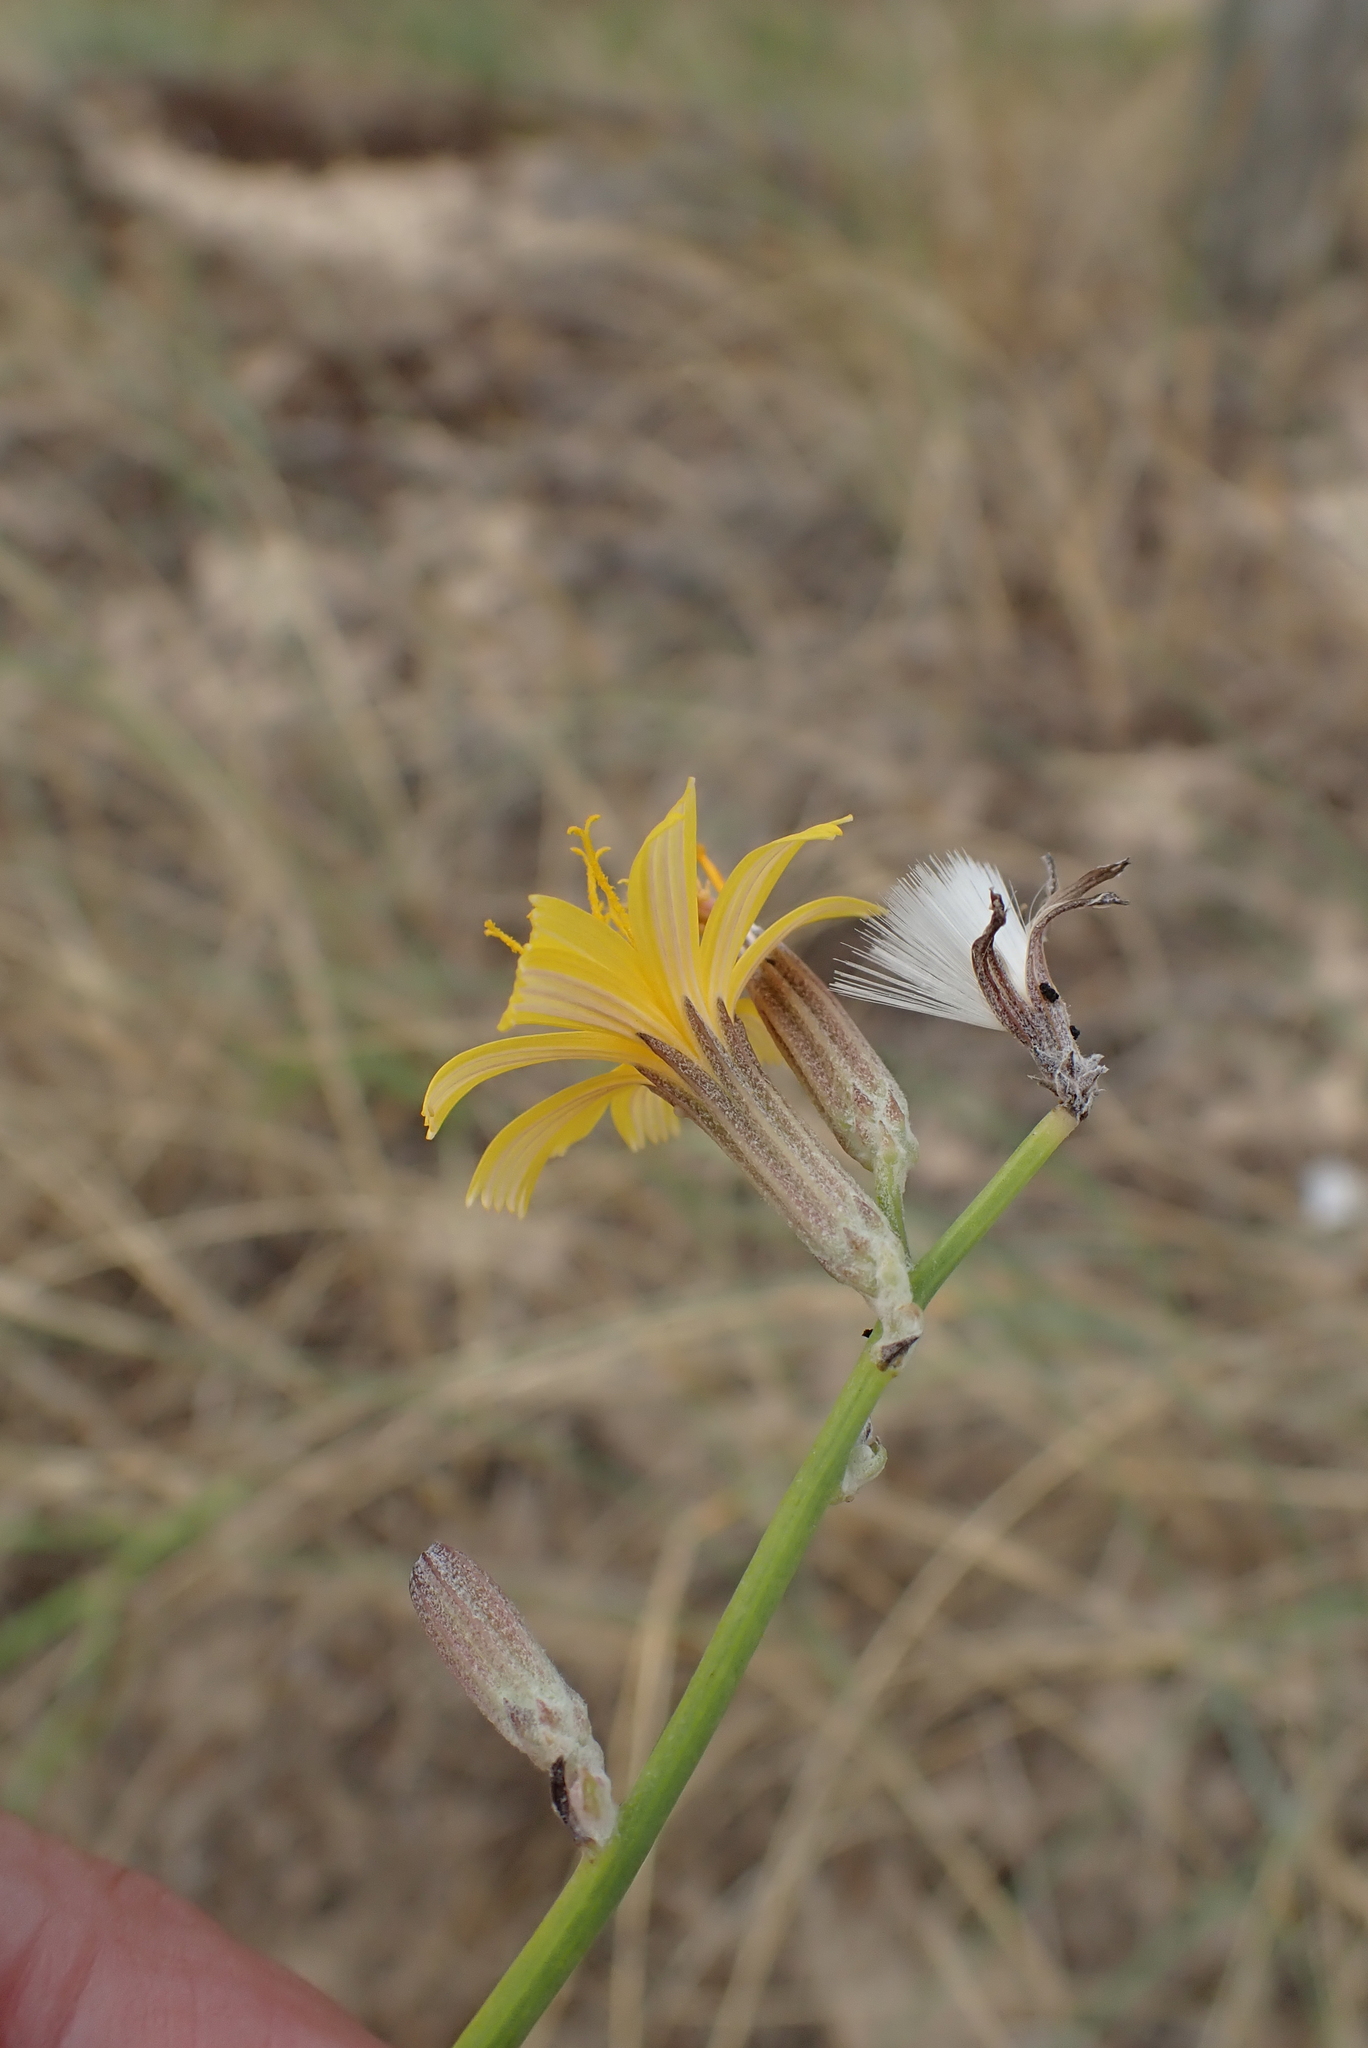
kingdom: Plantae
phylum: Tracheophyta
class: Magnoliopsida
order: Asterales
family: Asteraceae
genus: Chondrilla
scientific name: Chondrilla juncea
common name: Skeleton weed
